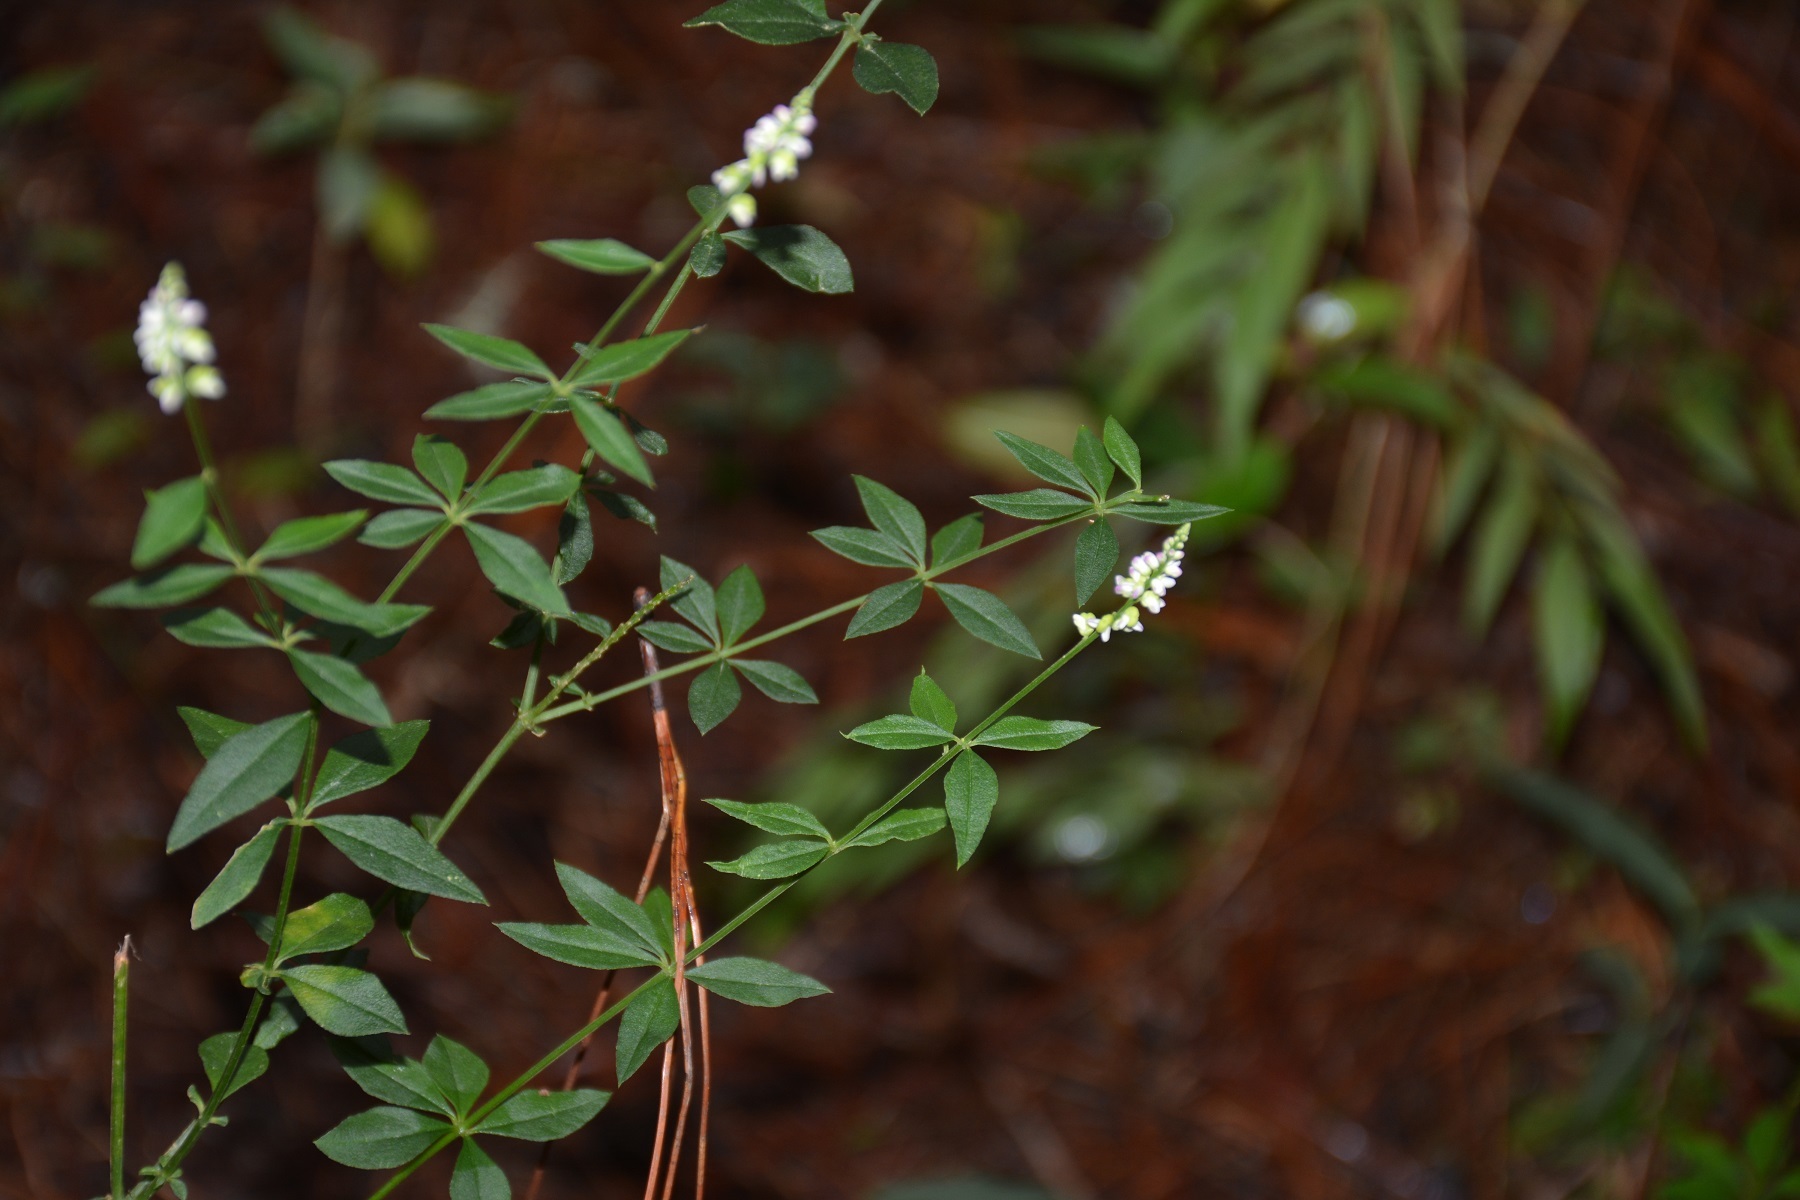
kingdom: Plantae
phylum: Tracheophyta
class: Magnoliopsida
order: Fabales
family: Polygalaceae
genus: Polygala
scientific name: Polygala aparinoides
